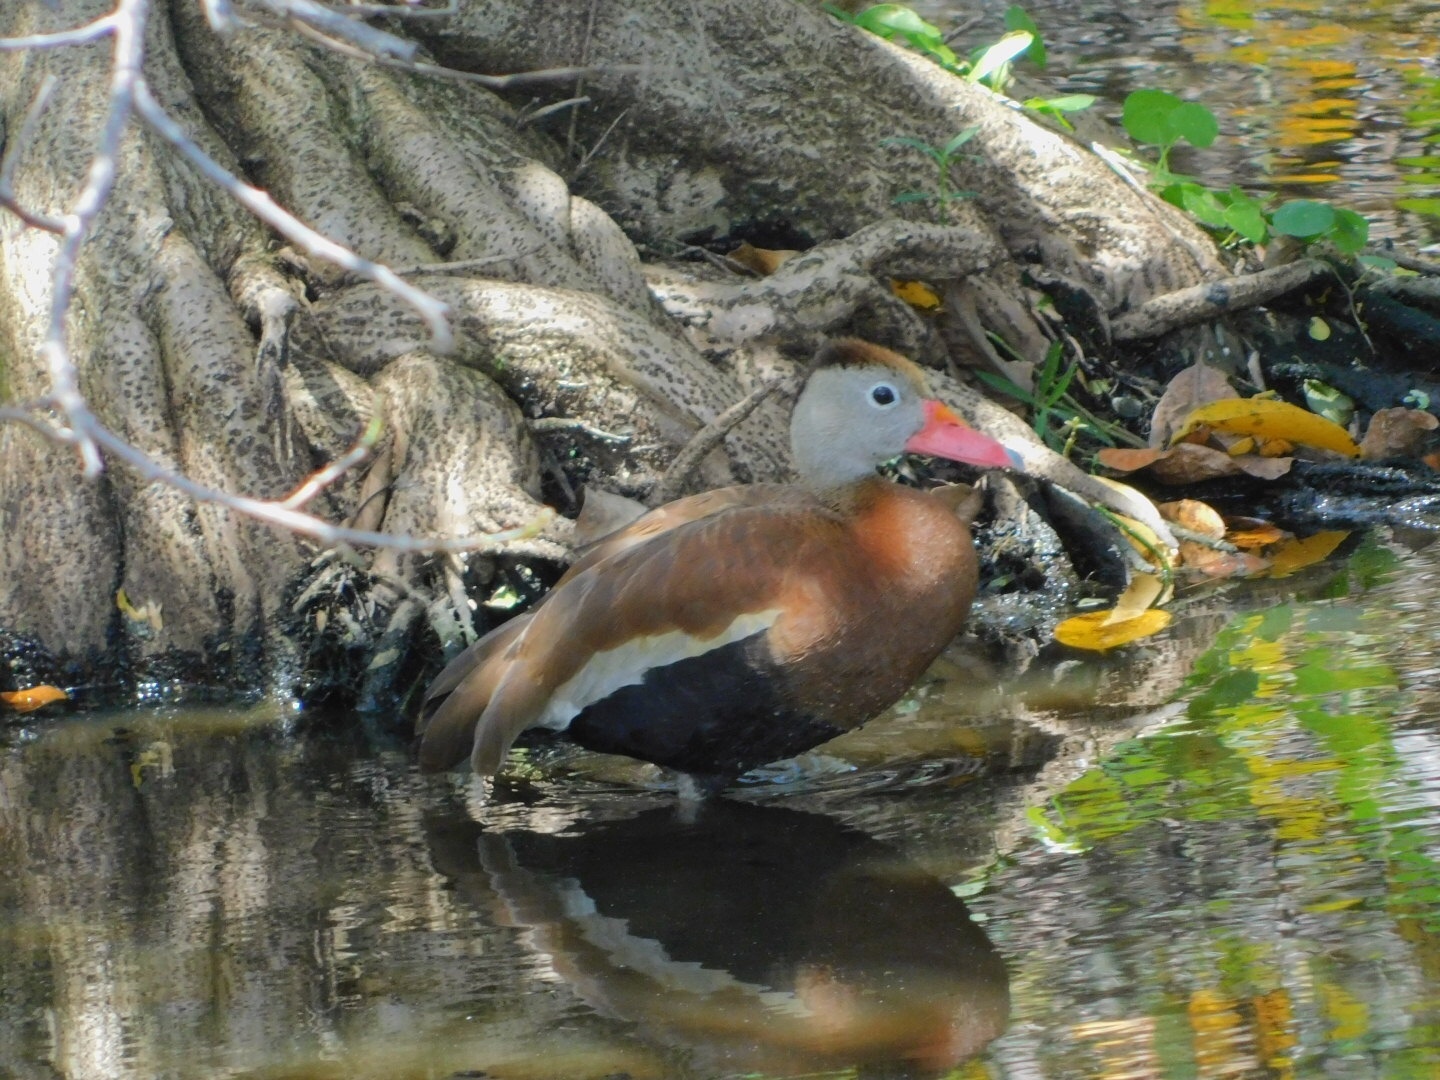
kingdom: Animalia
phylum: Chordata
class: Aves
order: Anseriformes
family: Anatidae
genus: Dendrocygna
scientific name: Dendrocygna autumnalis
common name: Black-bellied whistling duck
